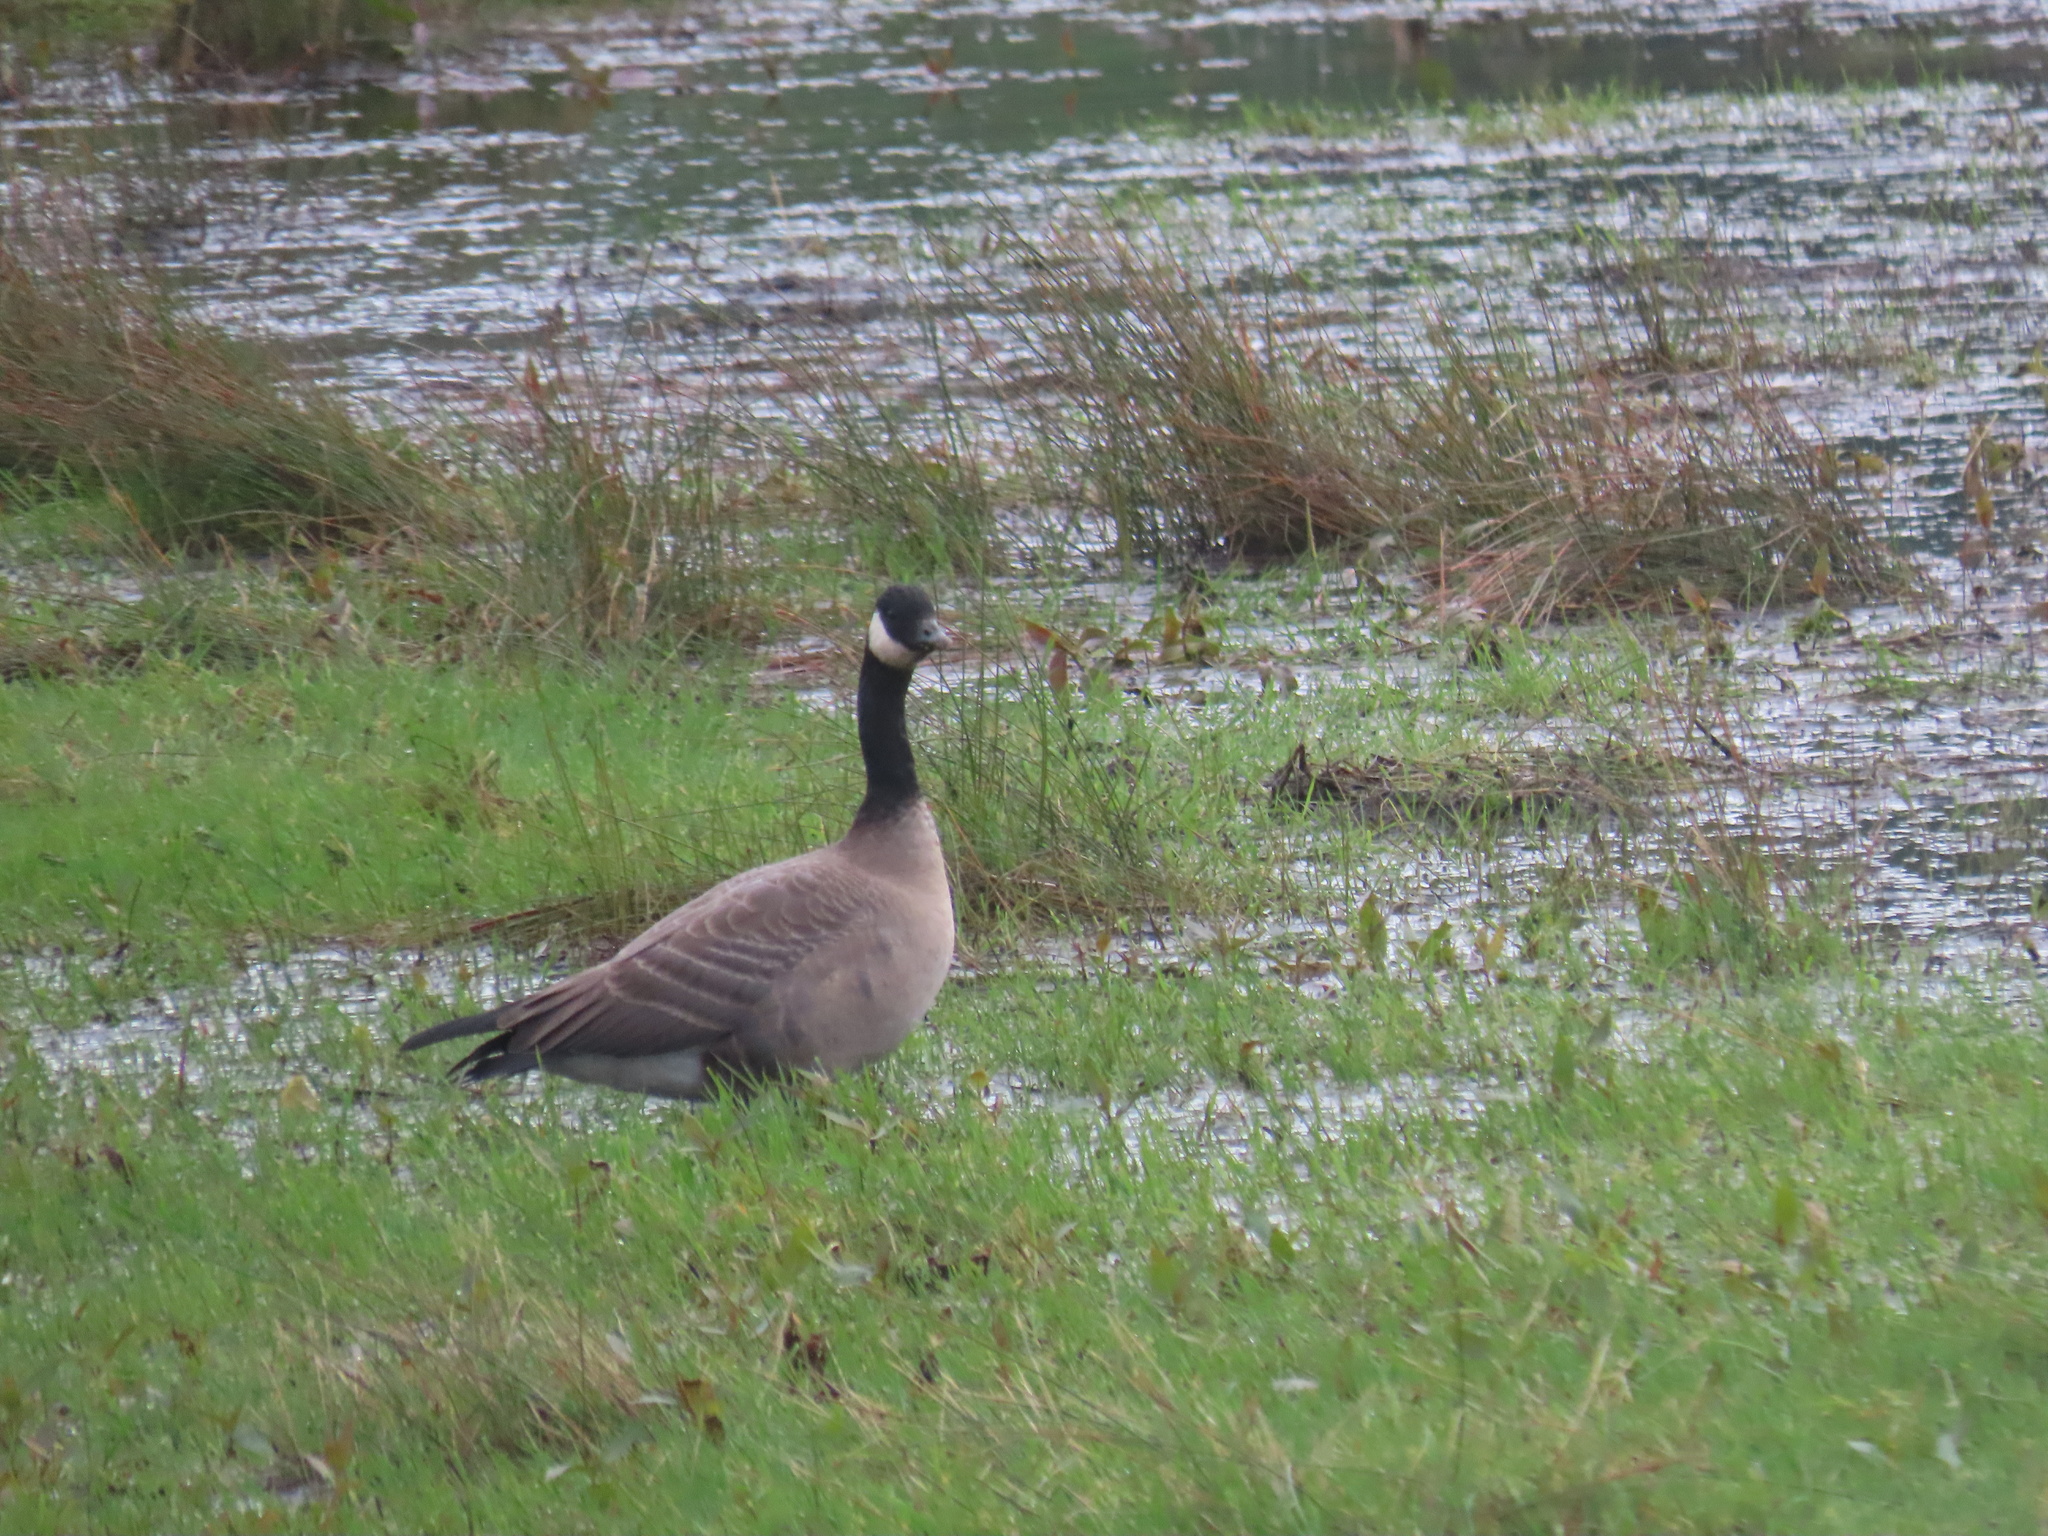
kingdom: Animalia
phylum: Chordata
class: Aves
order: Anseriformes
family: Anatidae
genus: Branta
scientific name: Branta canadensis
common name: Canada goose
